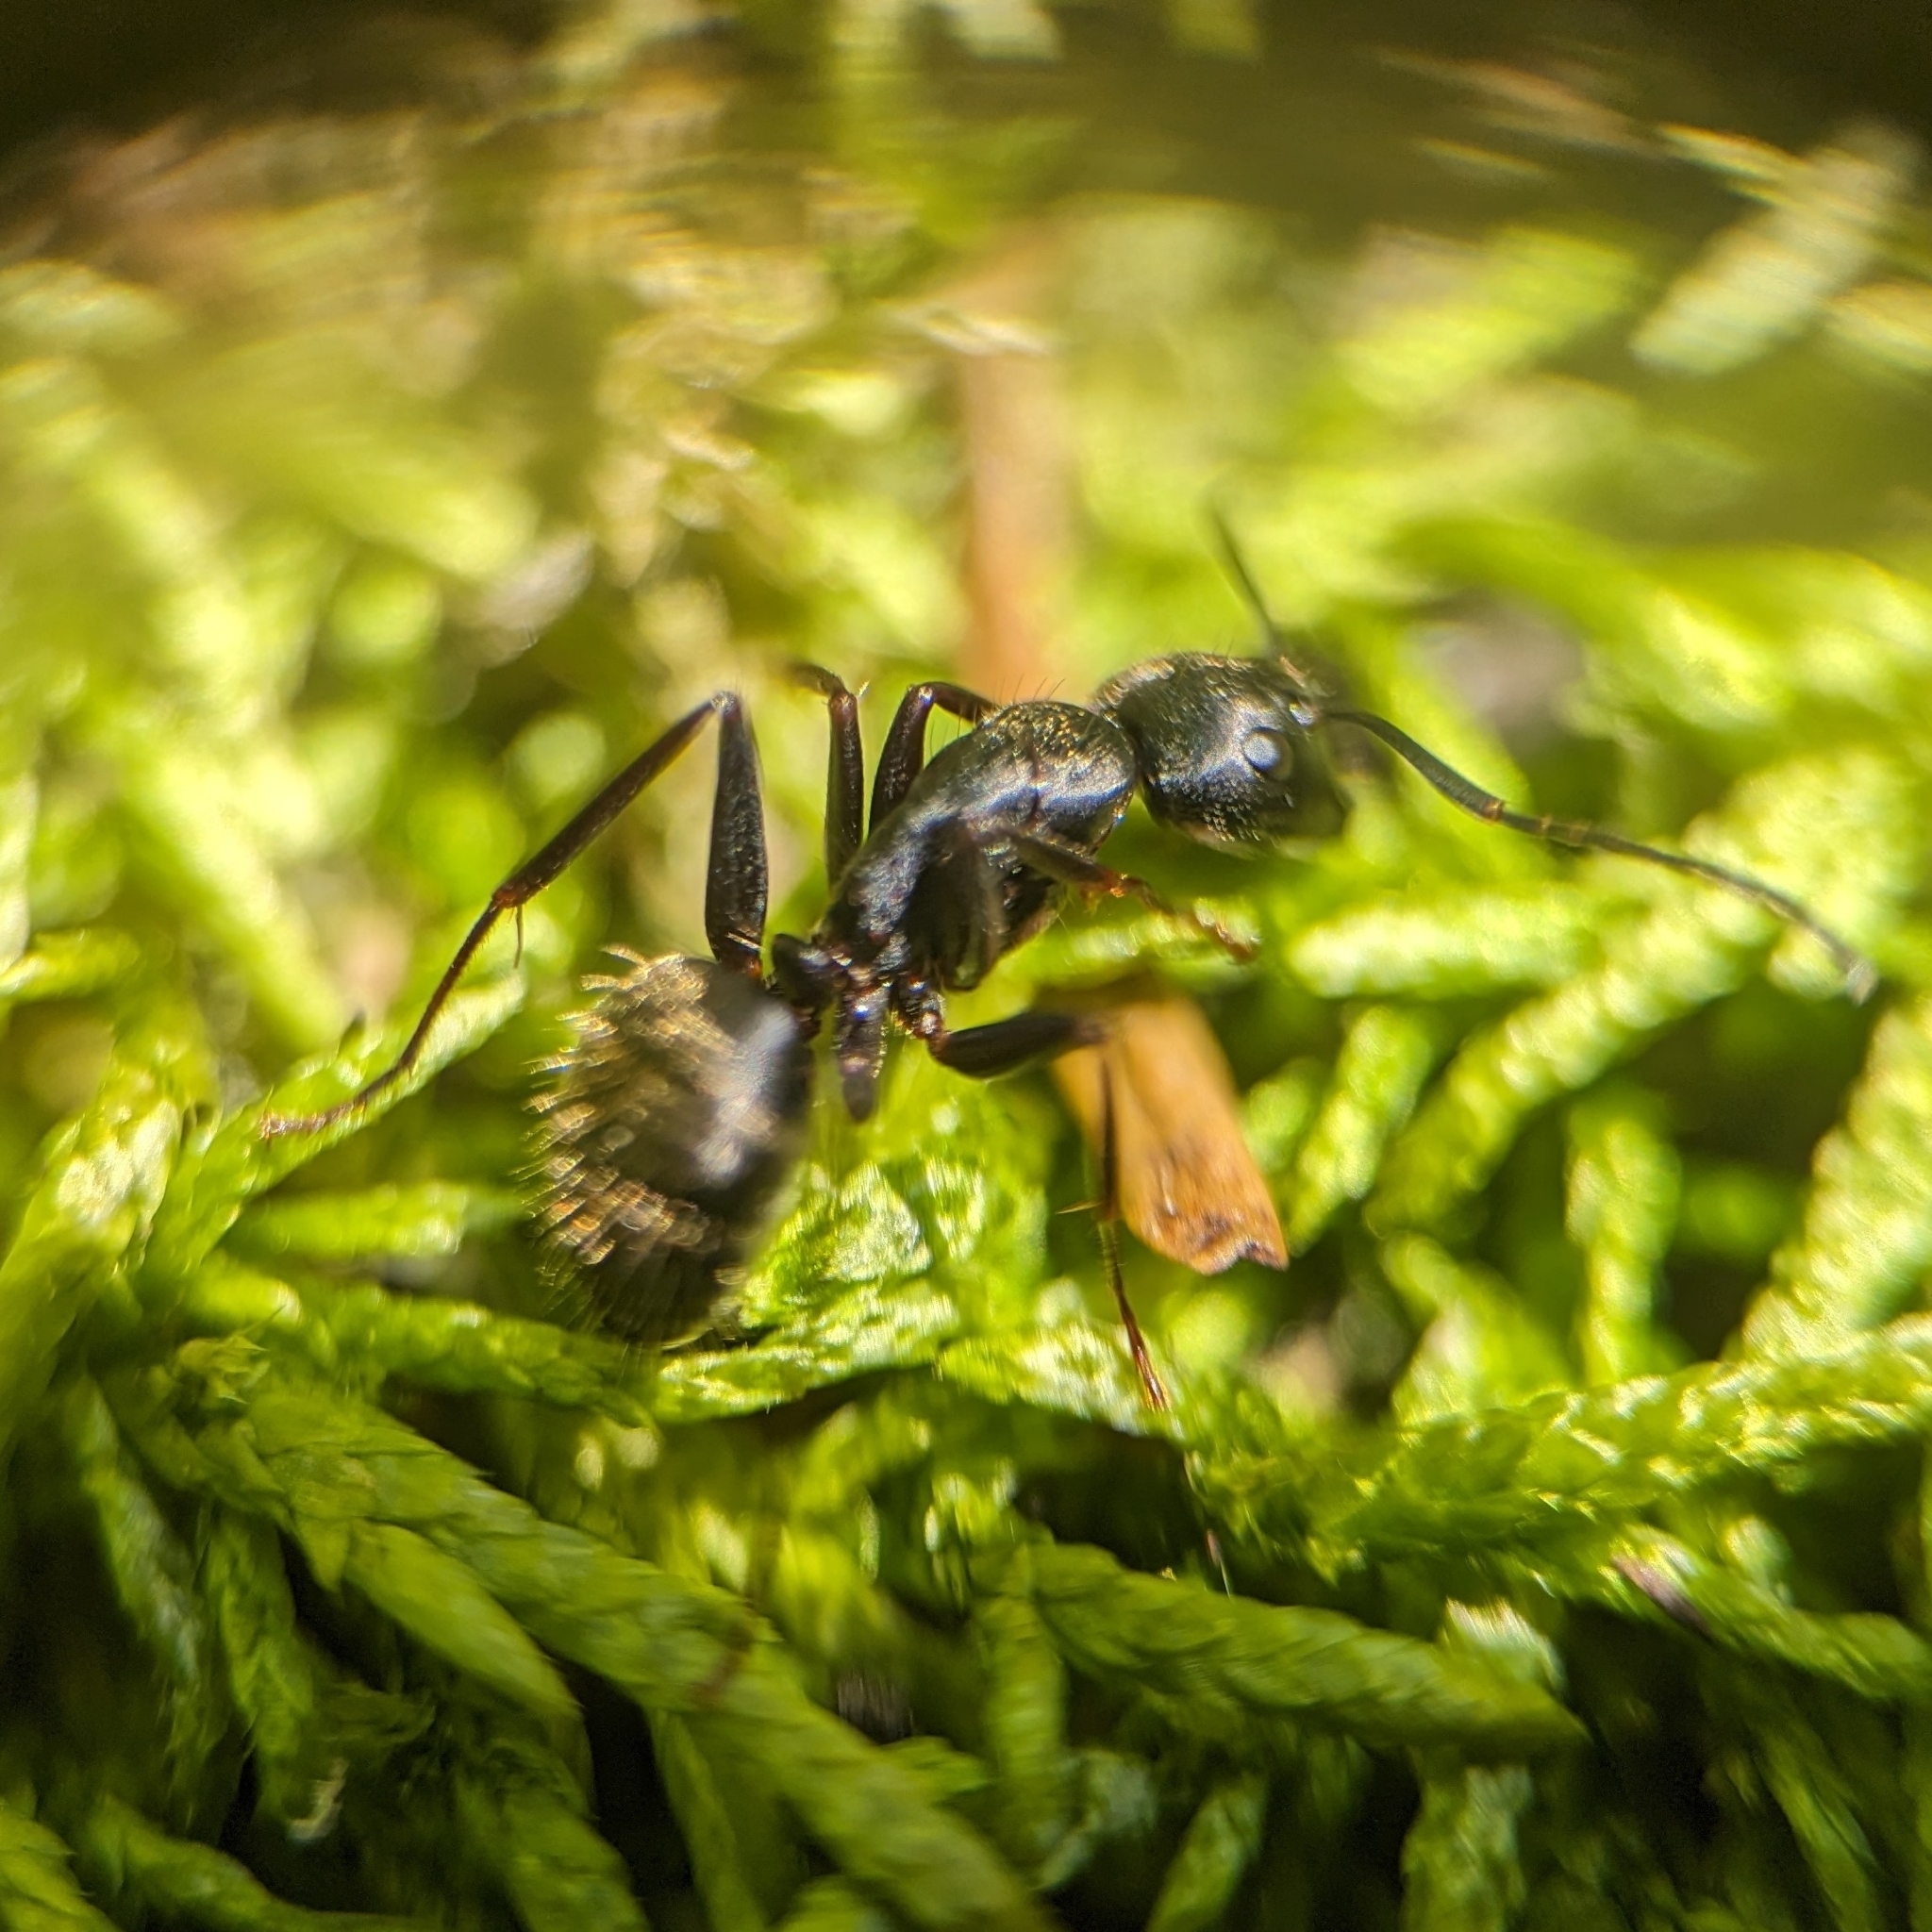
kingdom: Animalia
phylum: Arthropoda
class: Insecta
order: Hymenoptera
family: Formicidae
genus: Camponotus
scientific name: Camponotus pennsylvanicus
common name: Black carpenter ant
